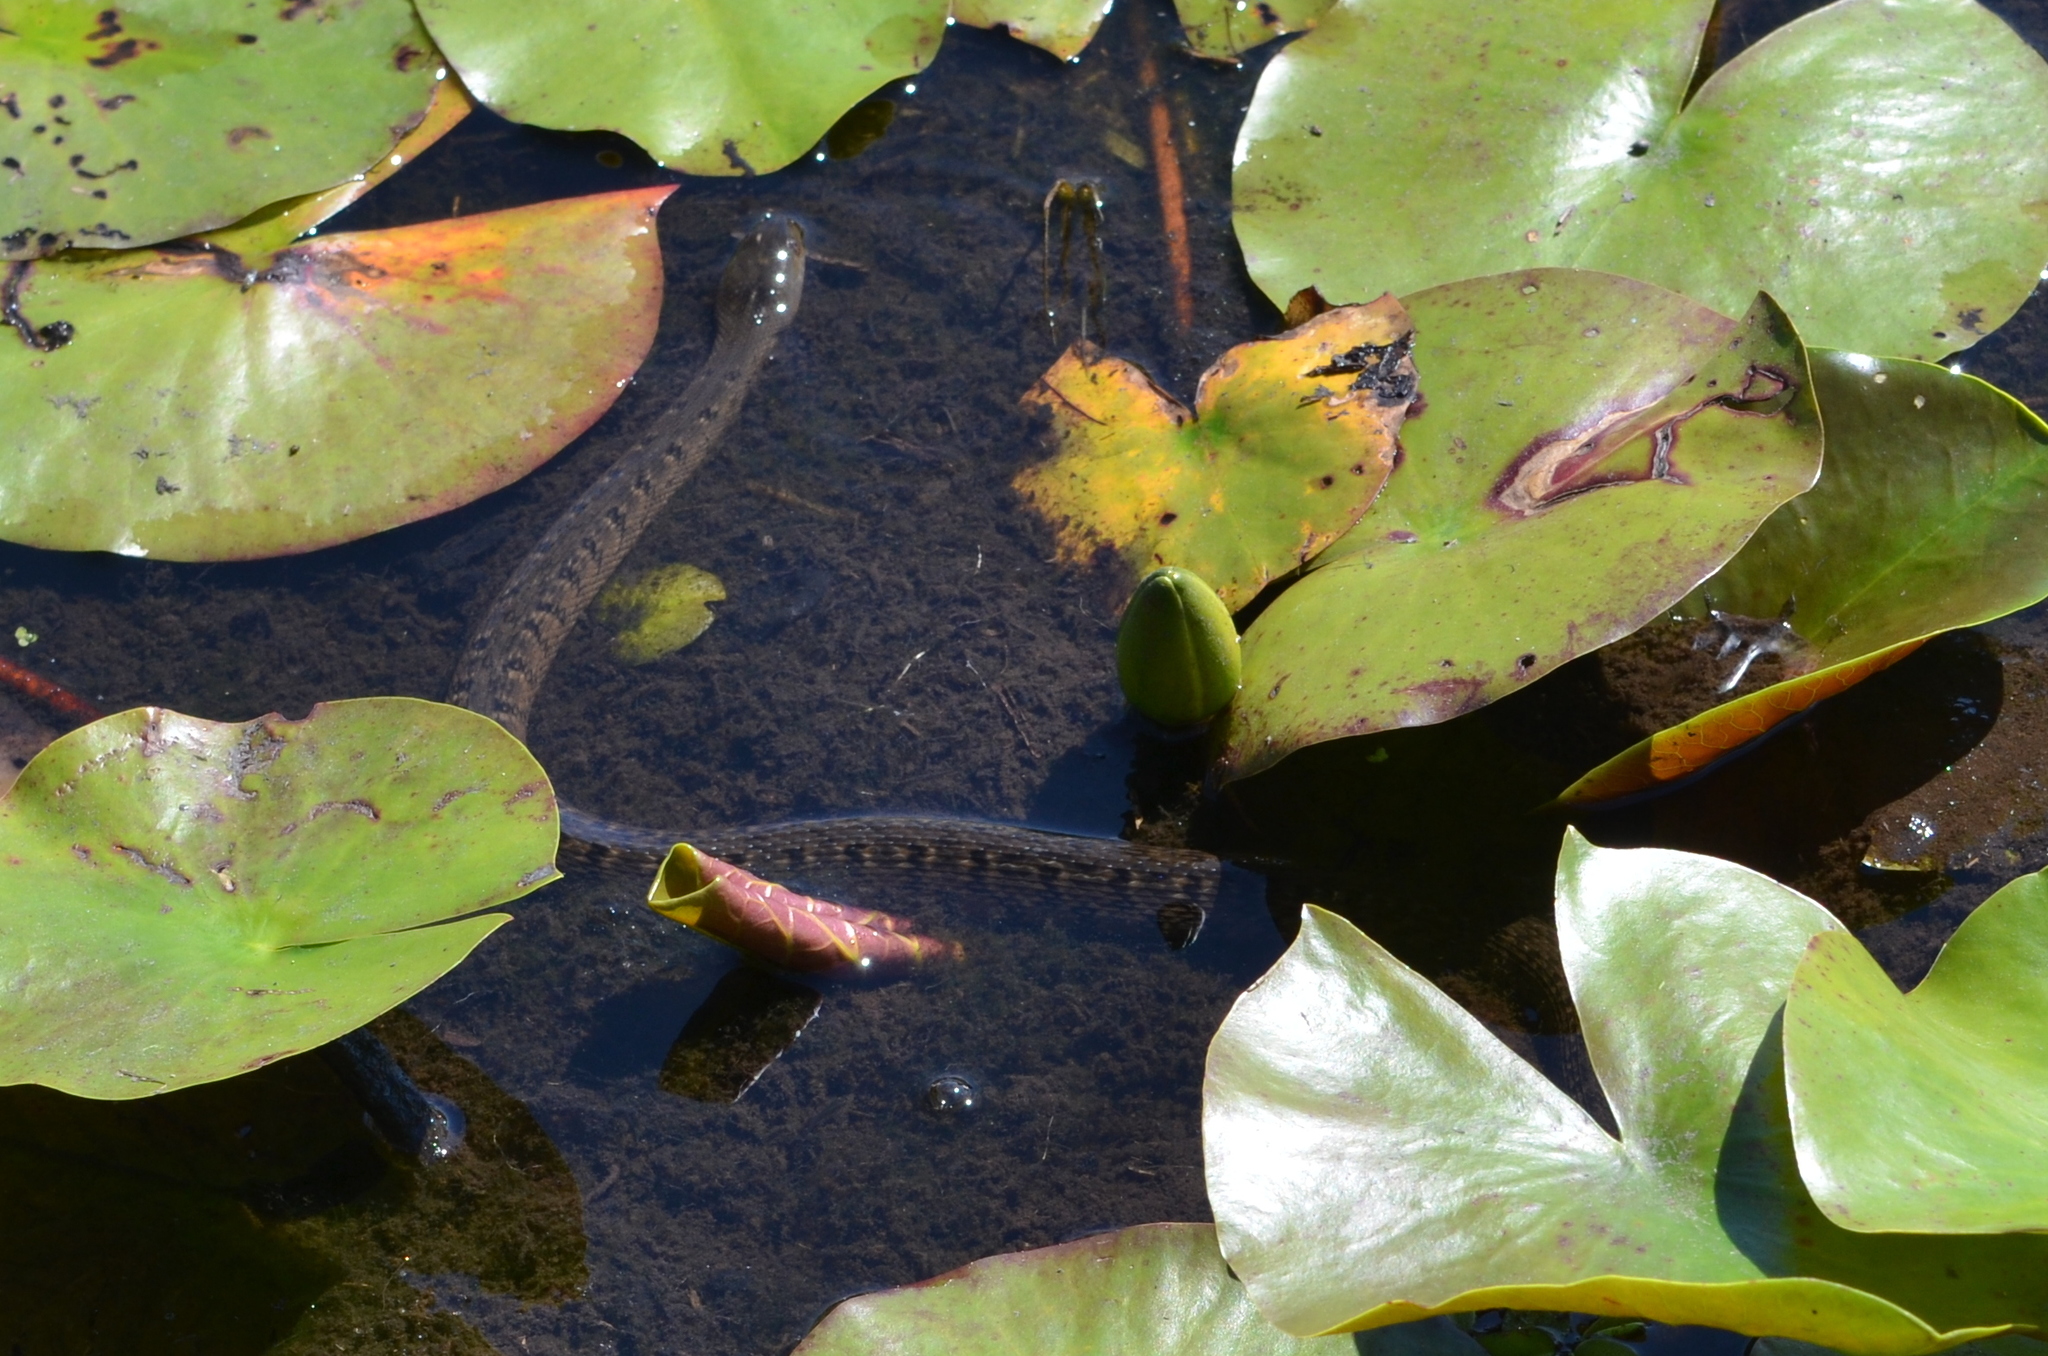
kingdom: Animalia
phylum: Chordata
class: Squamata
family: Colubridae
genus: Nerodia
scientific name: Nerodia cyclopion
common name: Mississippi green water snake
